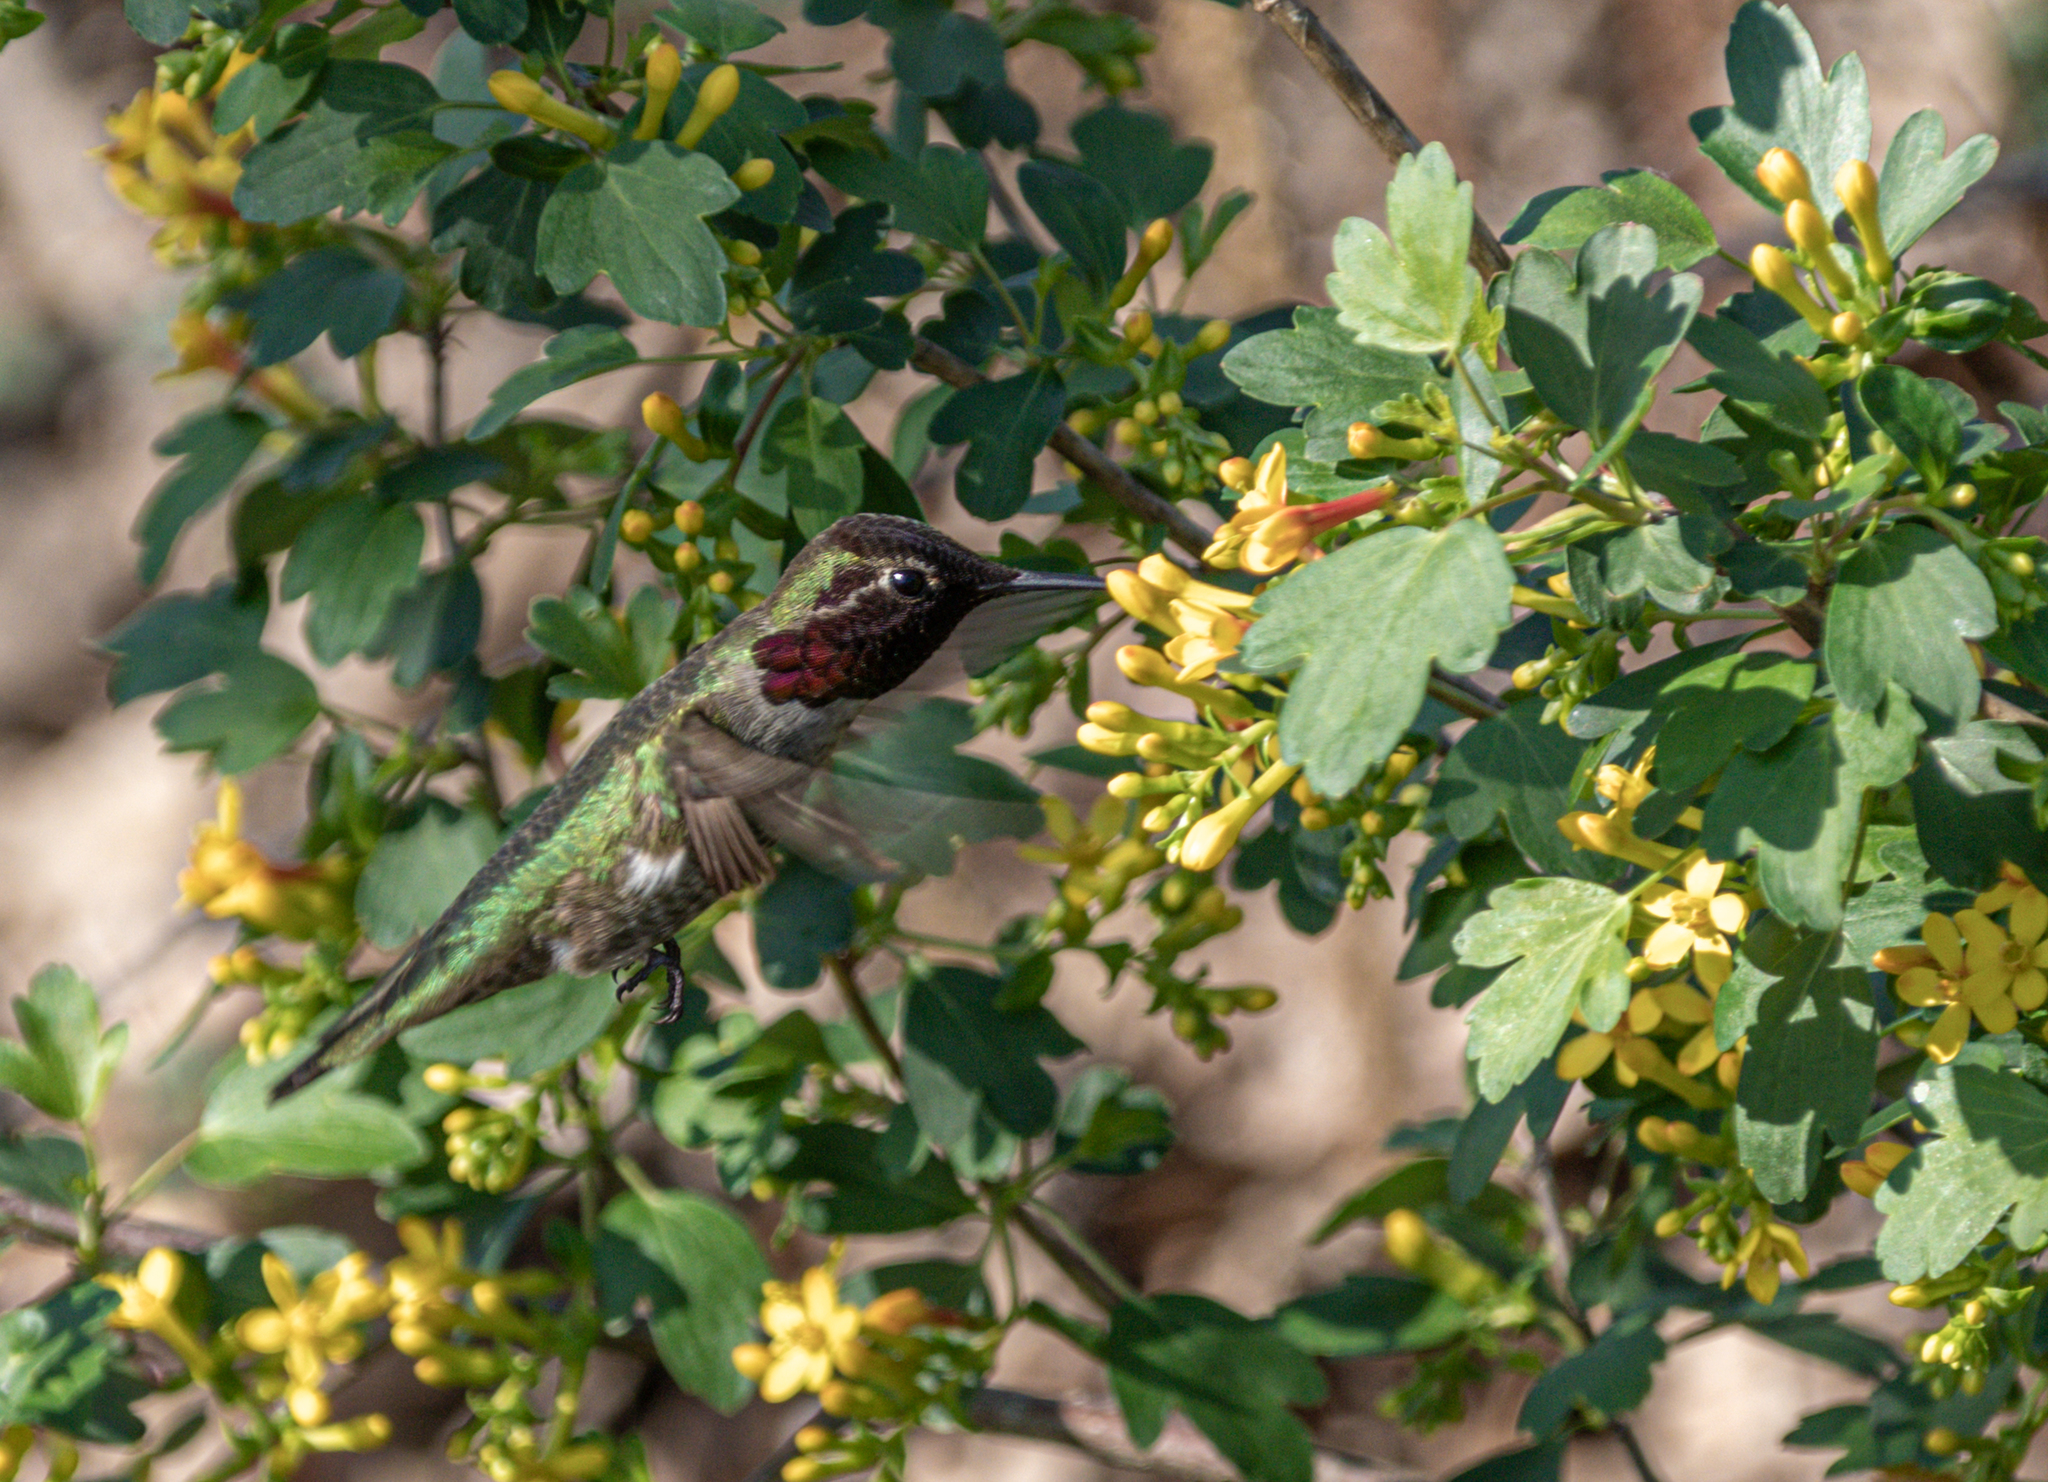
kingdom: Animalia
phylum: Chordata
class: Aves
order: Apodiformes
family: Trochilidae
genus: Calypte
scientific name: Calypte anna
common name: Anna's hummingbird
